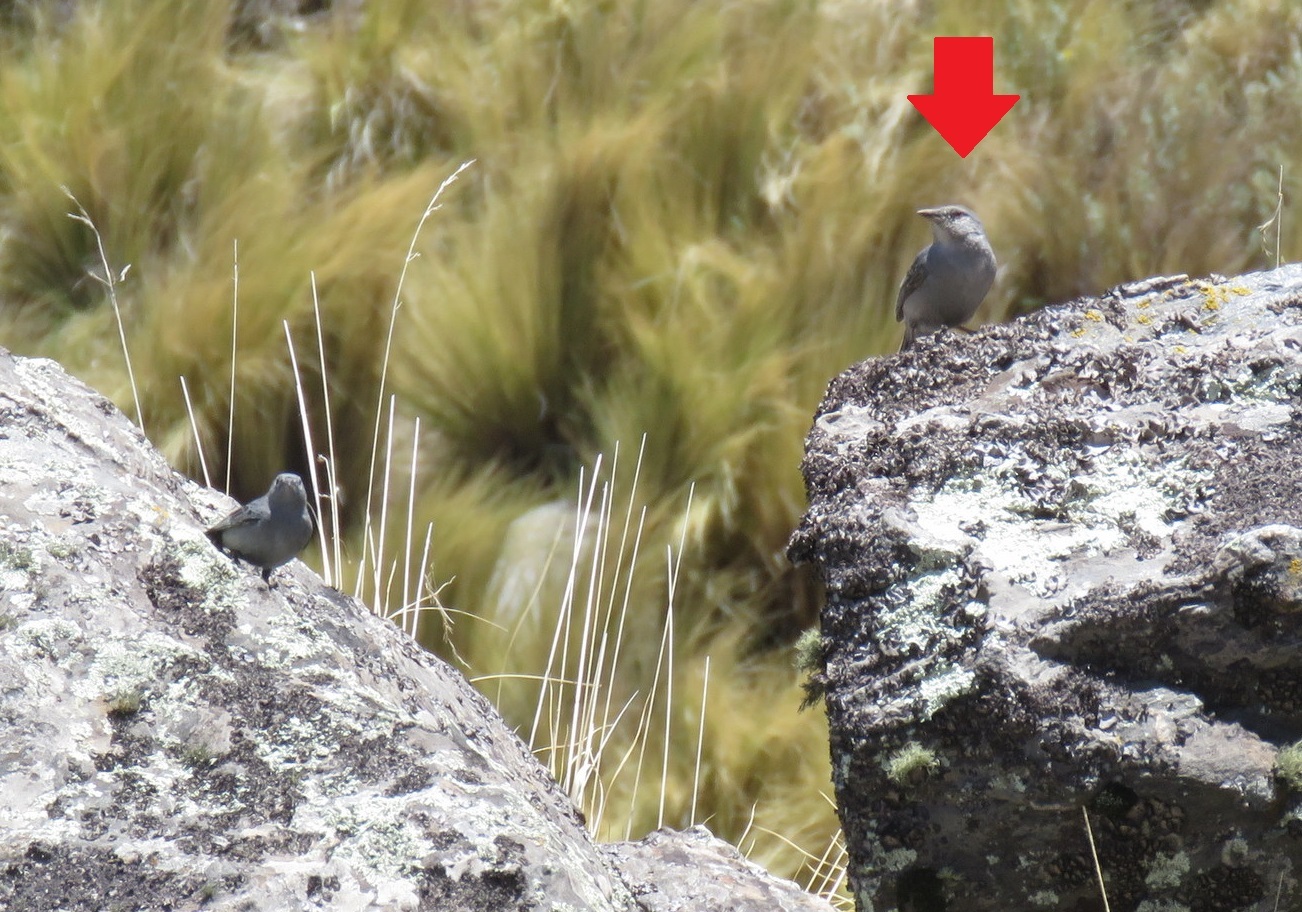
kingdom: Animalia
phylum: Chordata
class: Aves
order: Passeriformes
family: Thraupidae
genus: Idiopsar
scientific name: Idiopsar brachyurus
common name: Short-tailed finch
